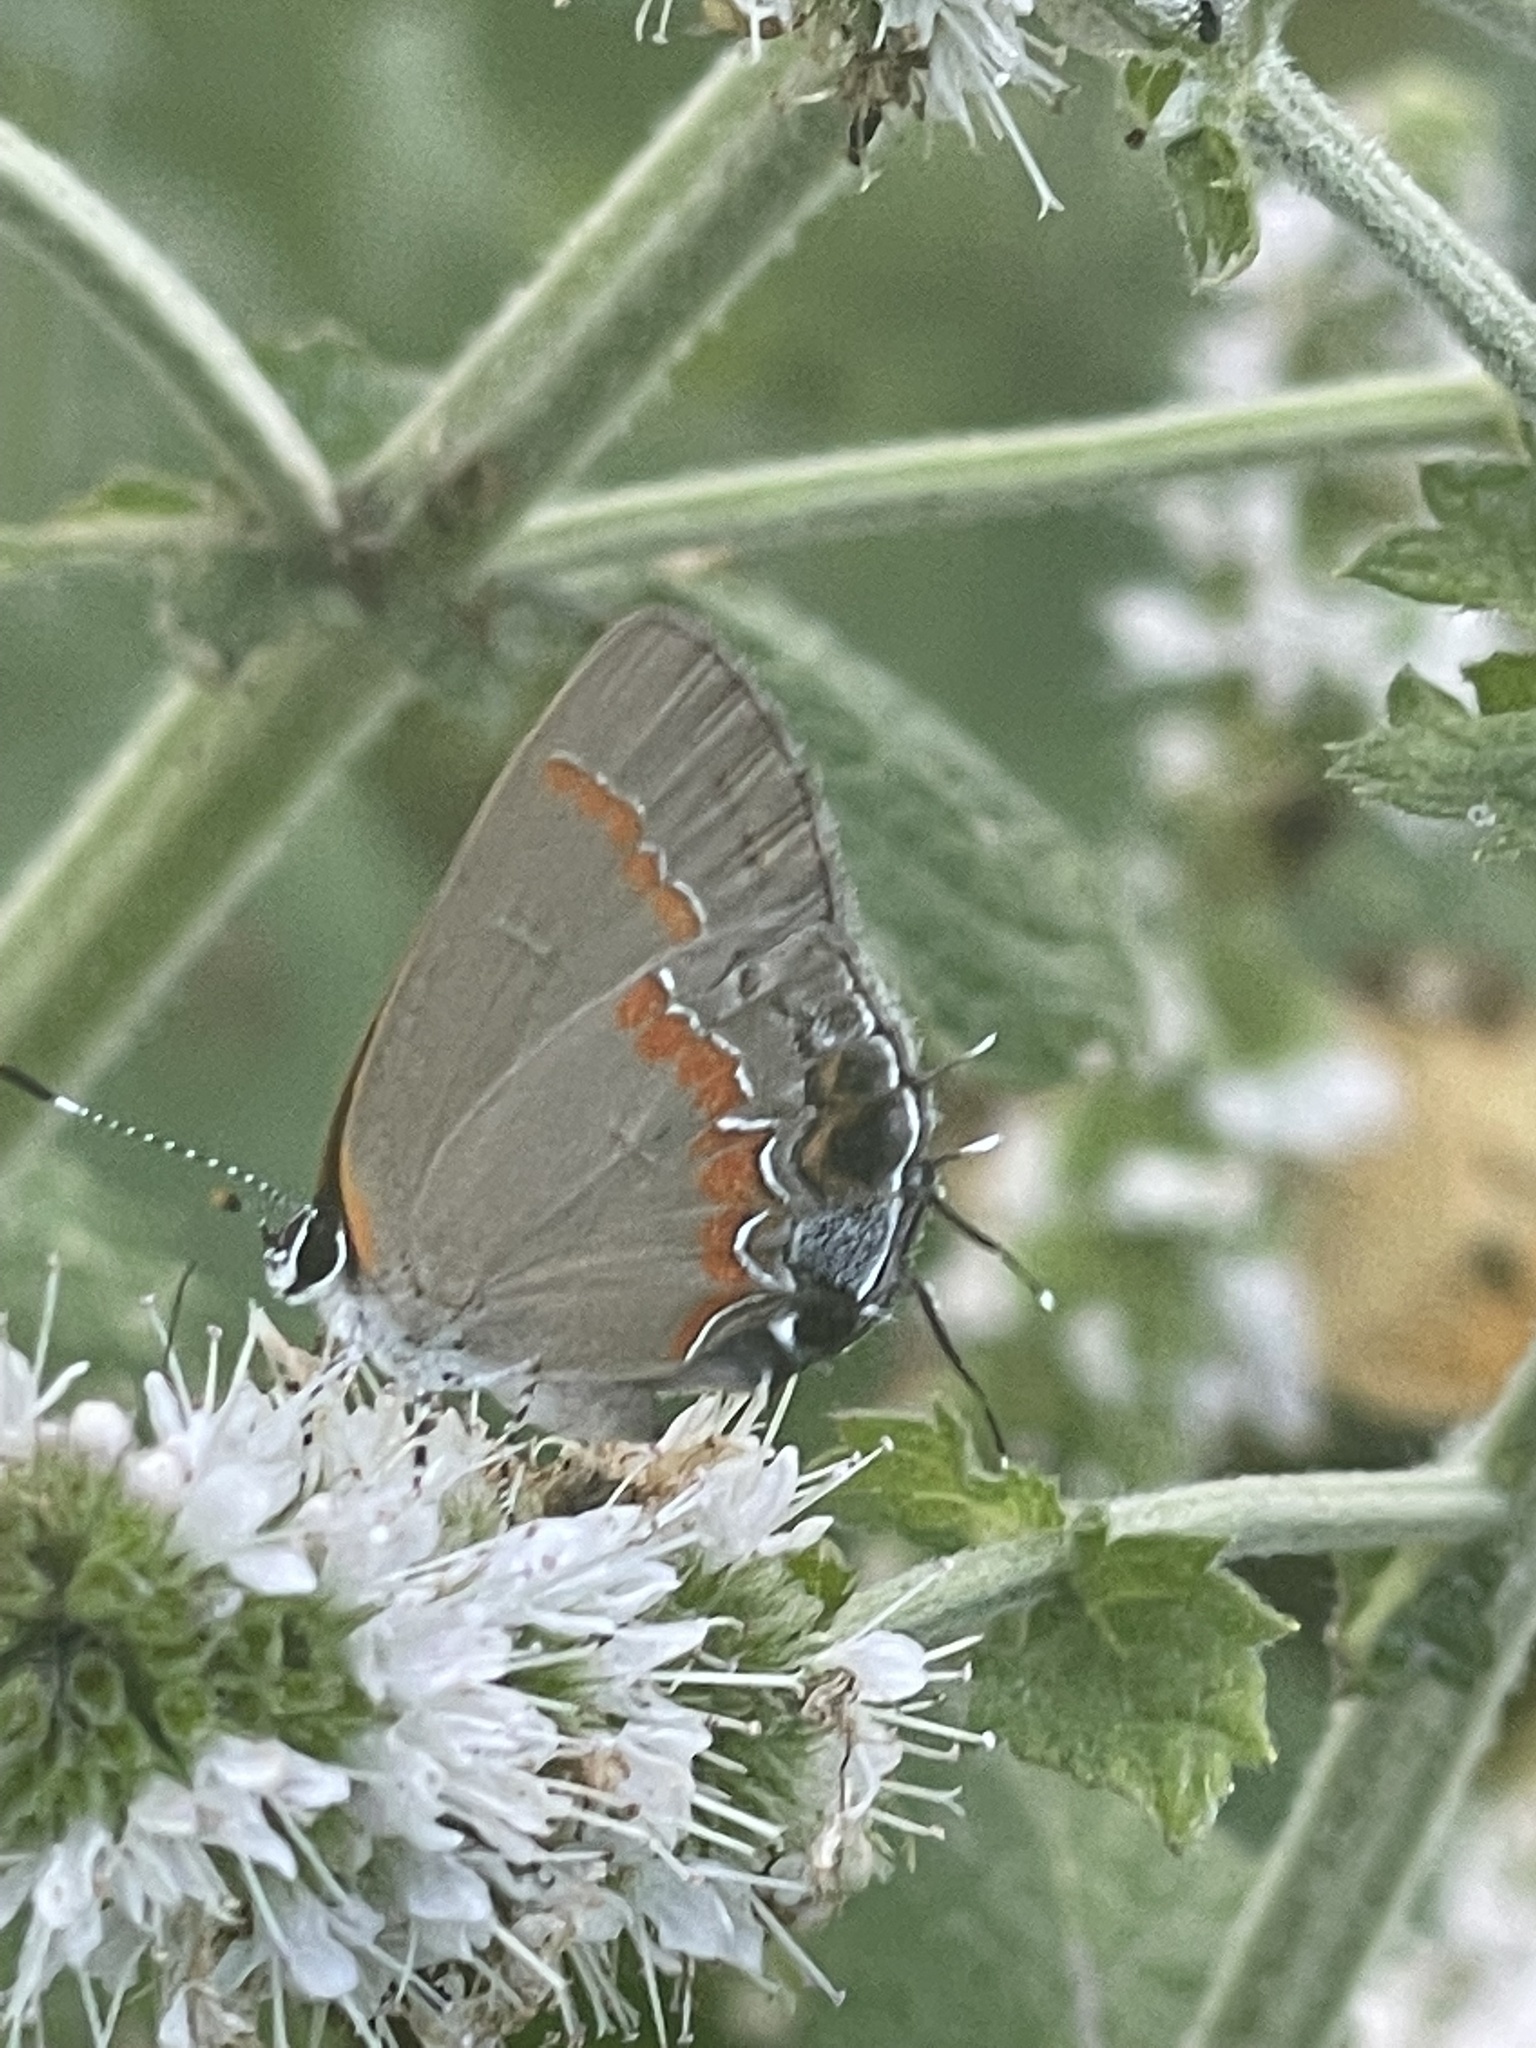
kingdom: Animalia
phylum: Arthropoda
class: Insecta
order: Lepidoptera
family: Lycaenidae
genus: Calycopis
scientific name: Calycopis cecrops
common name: Red-banded hairstreak
